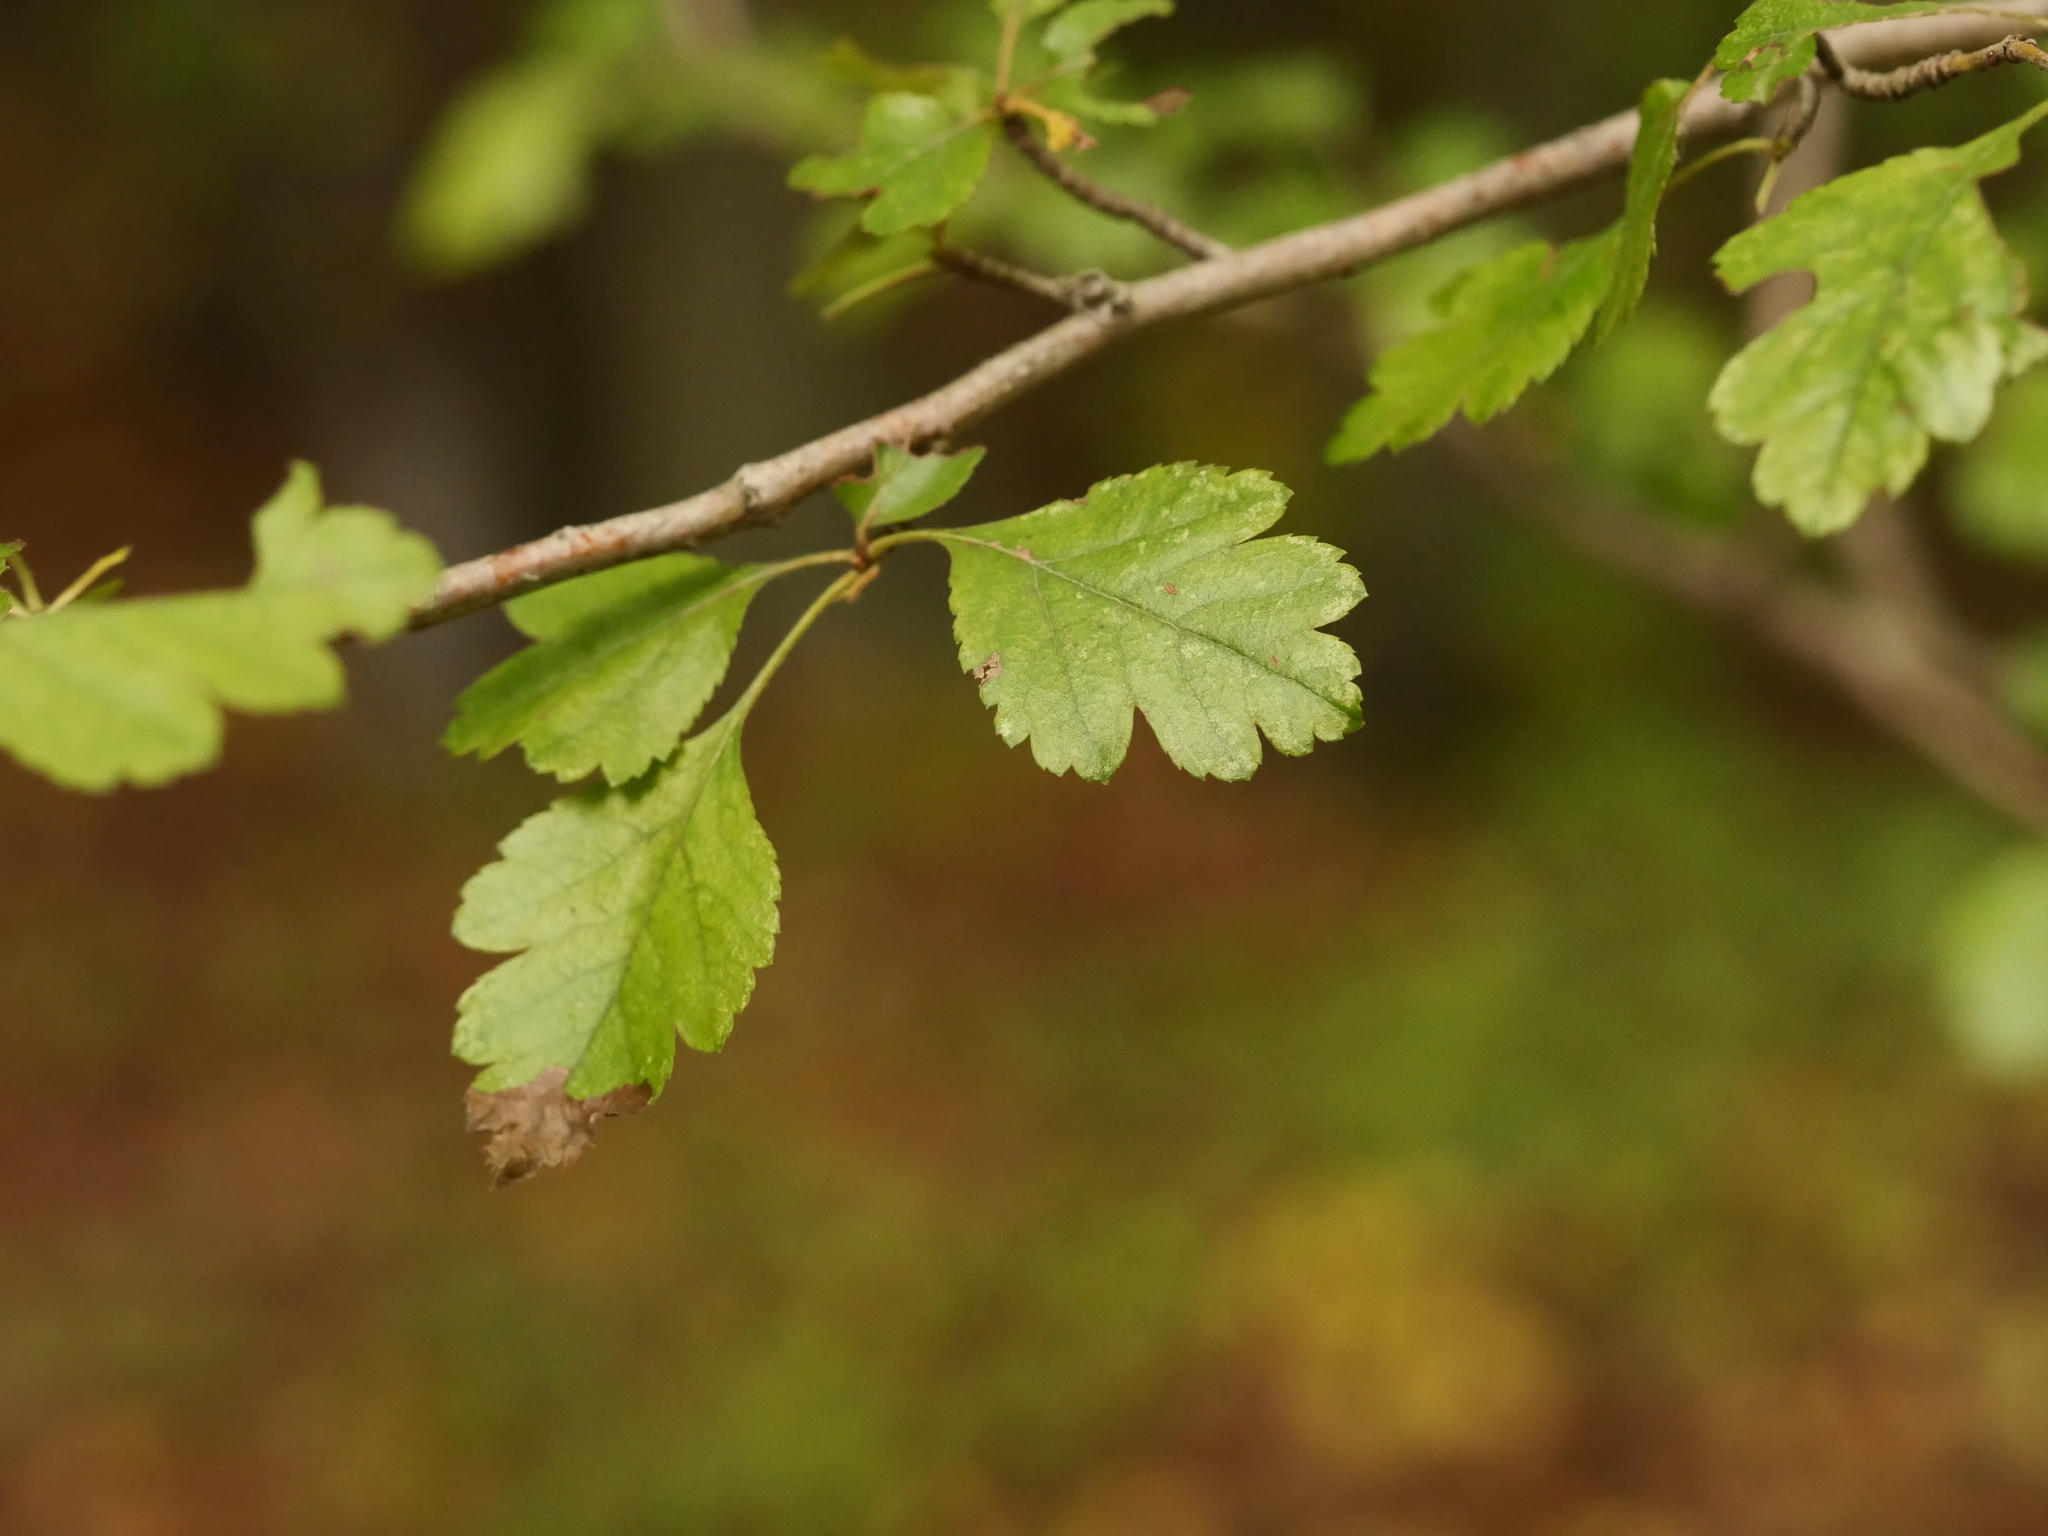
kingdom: Plantae
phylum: Tracheophyta
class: Magnoliopsida
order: Rosales
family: Rosaceae
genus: Crataegus
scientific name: Crataegus laevigata
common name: Midland hawthorn
